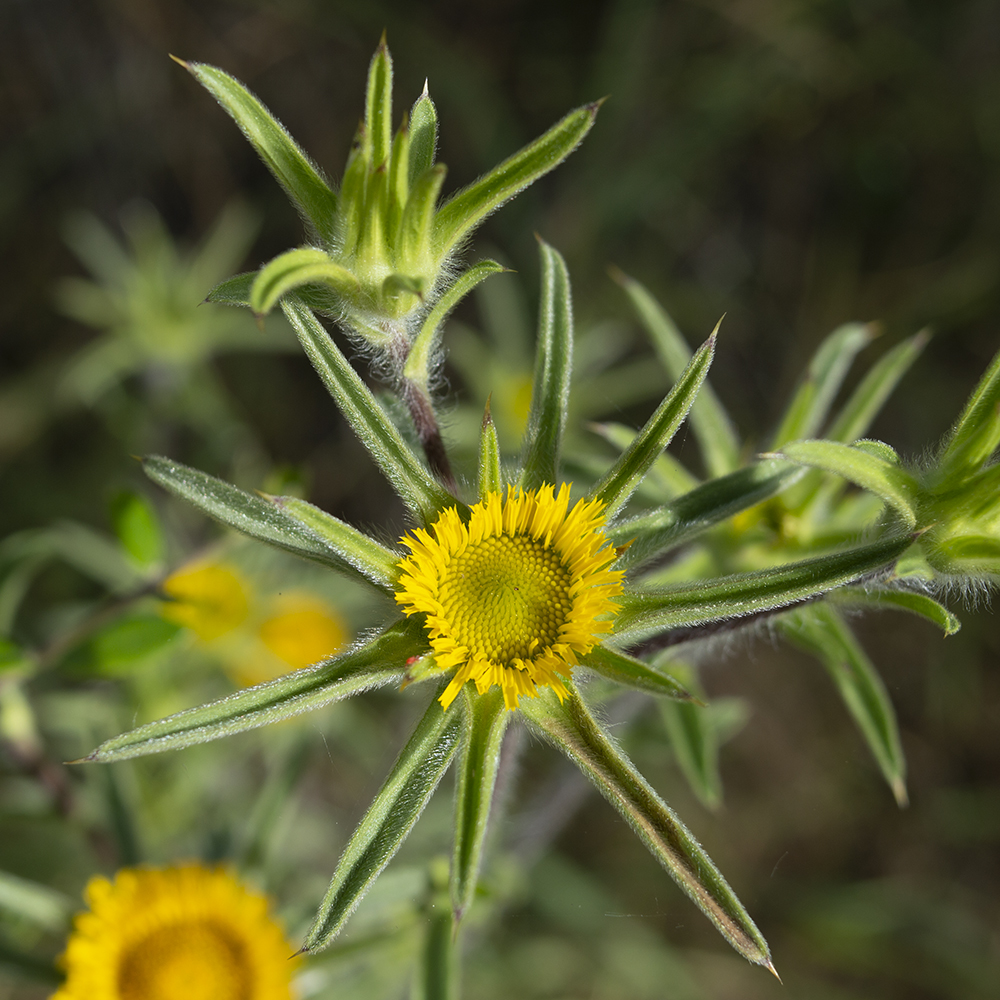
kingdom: Plantae
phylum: Tracheophyta
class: Magnoliopsida
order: Asterales
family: Asteraceae
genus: Pallenis
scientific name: Pallenis spinosa
